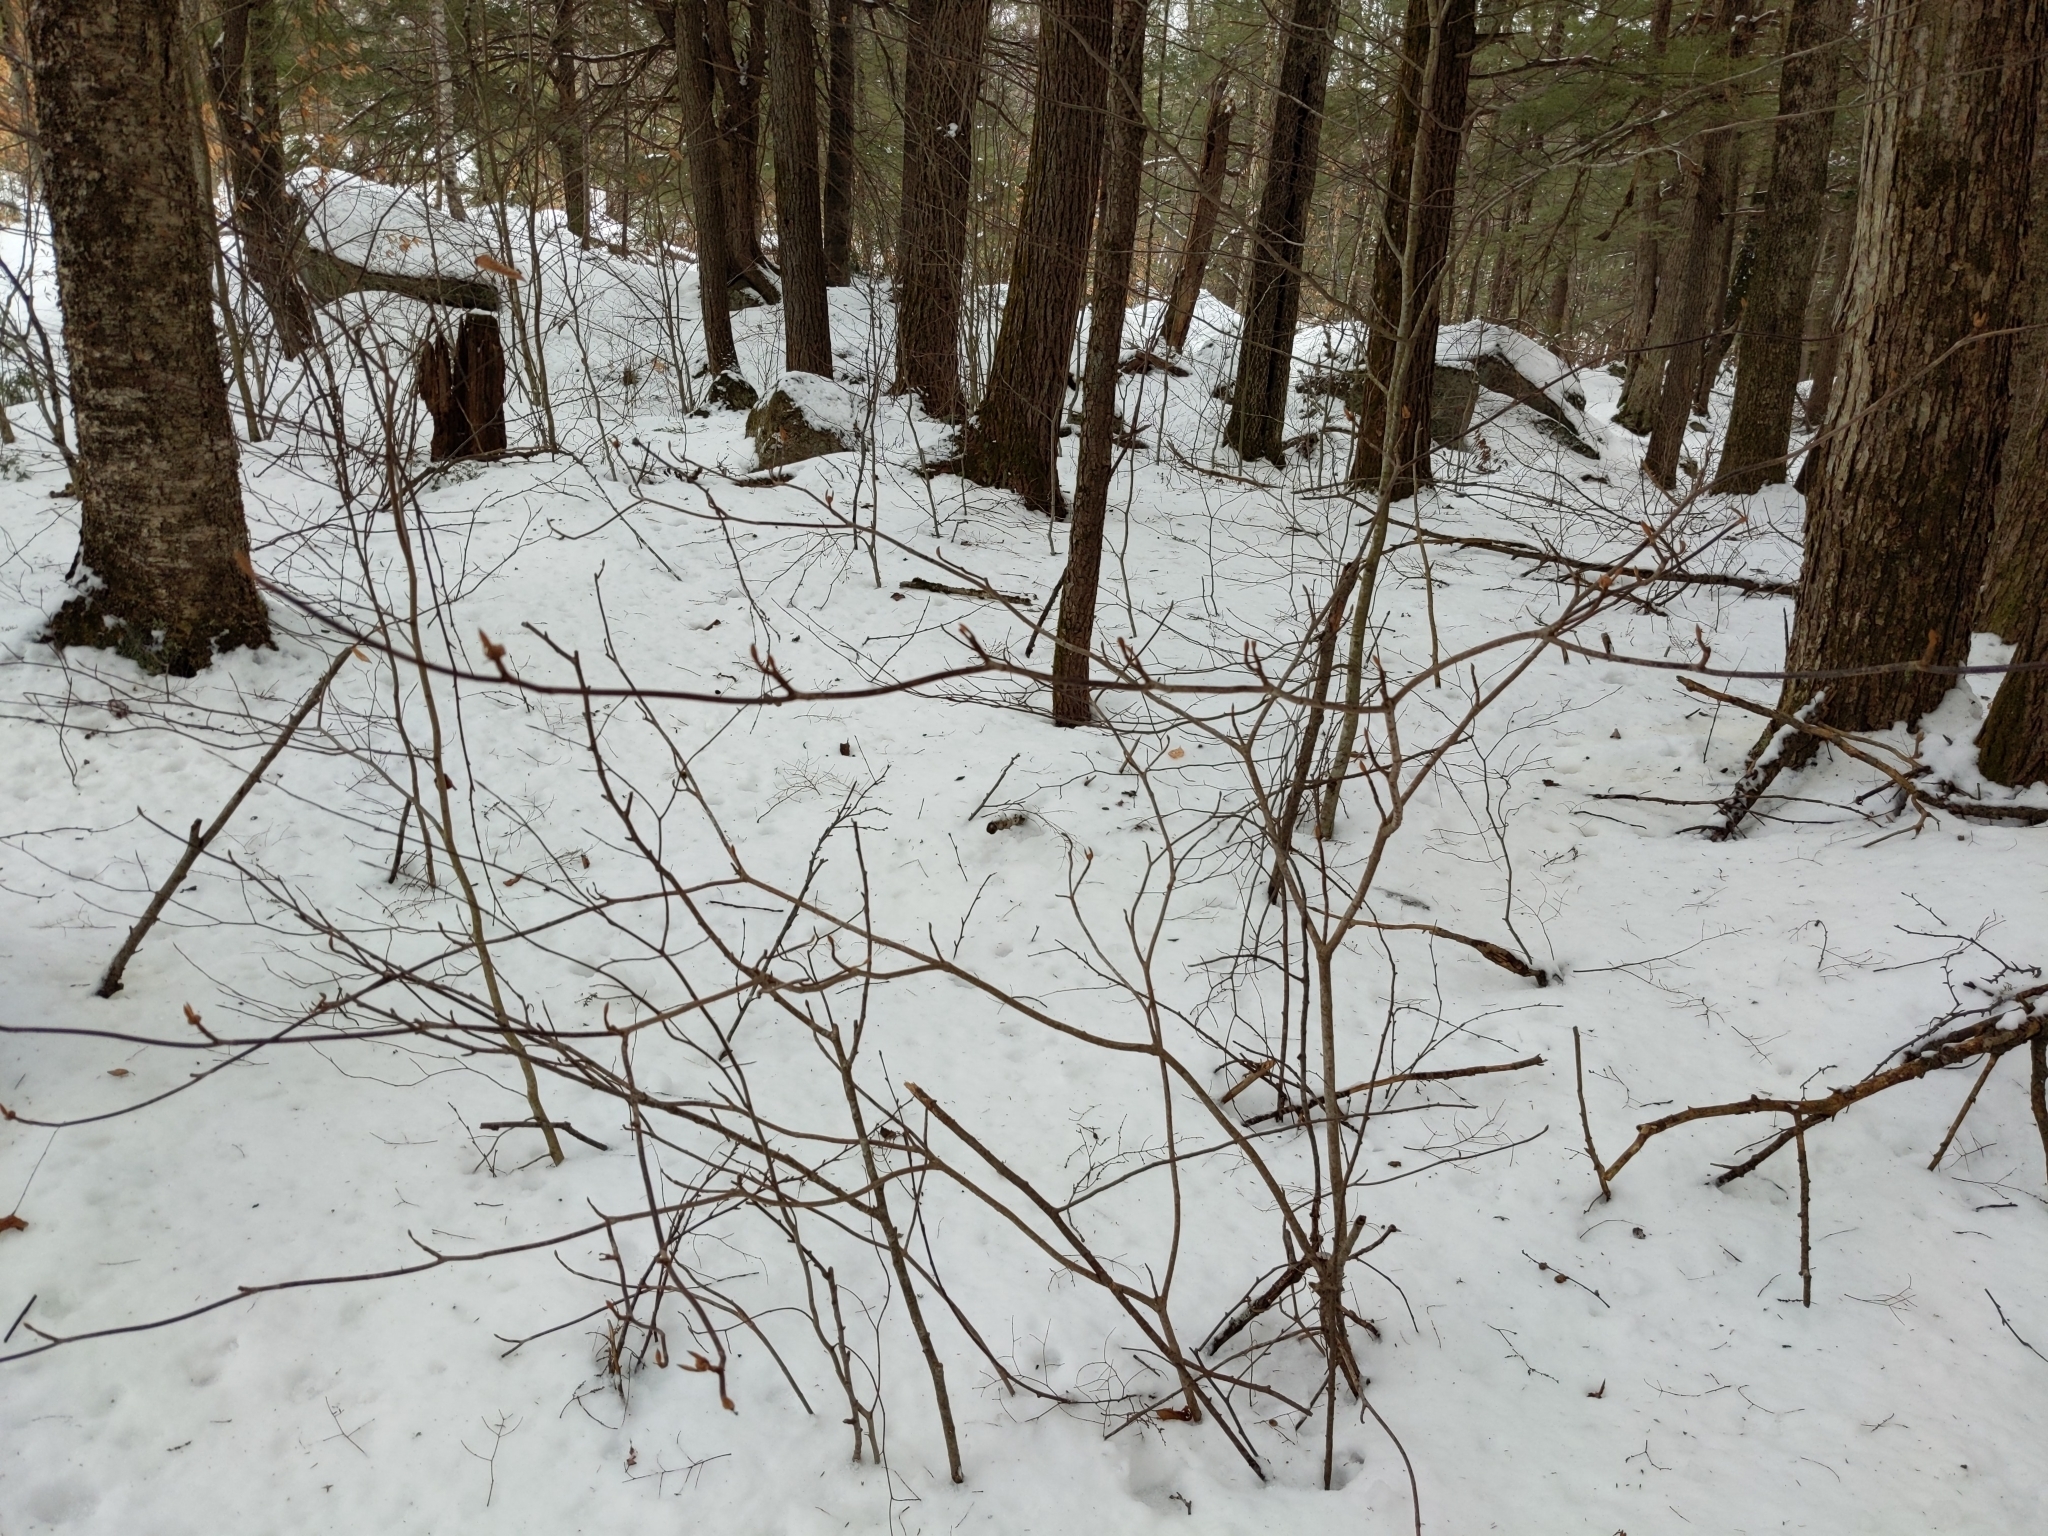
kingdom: Plantae
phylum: Tracheophyta
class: Magnoliopsida
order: Dipsacales
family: Viburnaceae
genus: Viburnum
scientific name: Viburnum lantanoides
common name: Hobblebush
